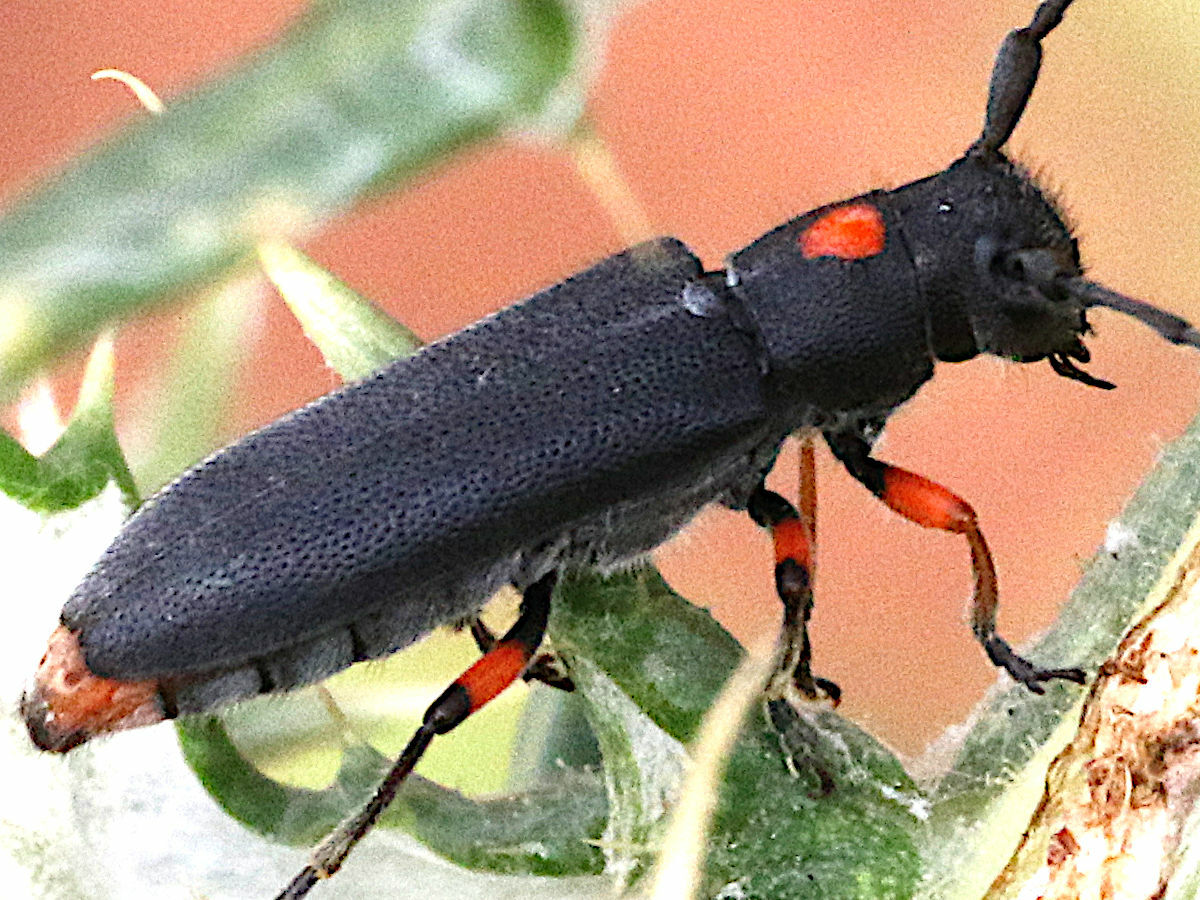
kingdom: Animalia
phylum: Arthropoda
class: Insecta
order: Coleoptera
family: Cerambycidae
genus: Phytoecia
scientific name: Phytoecia pustulata
